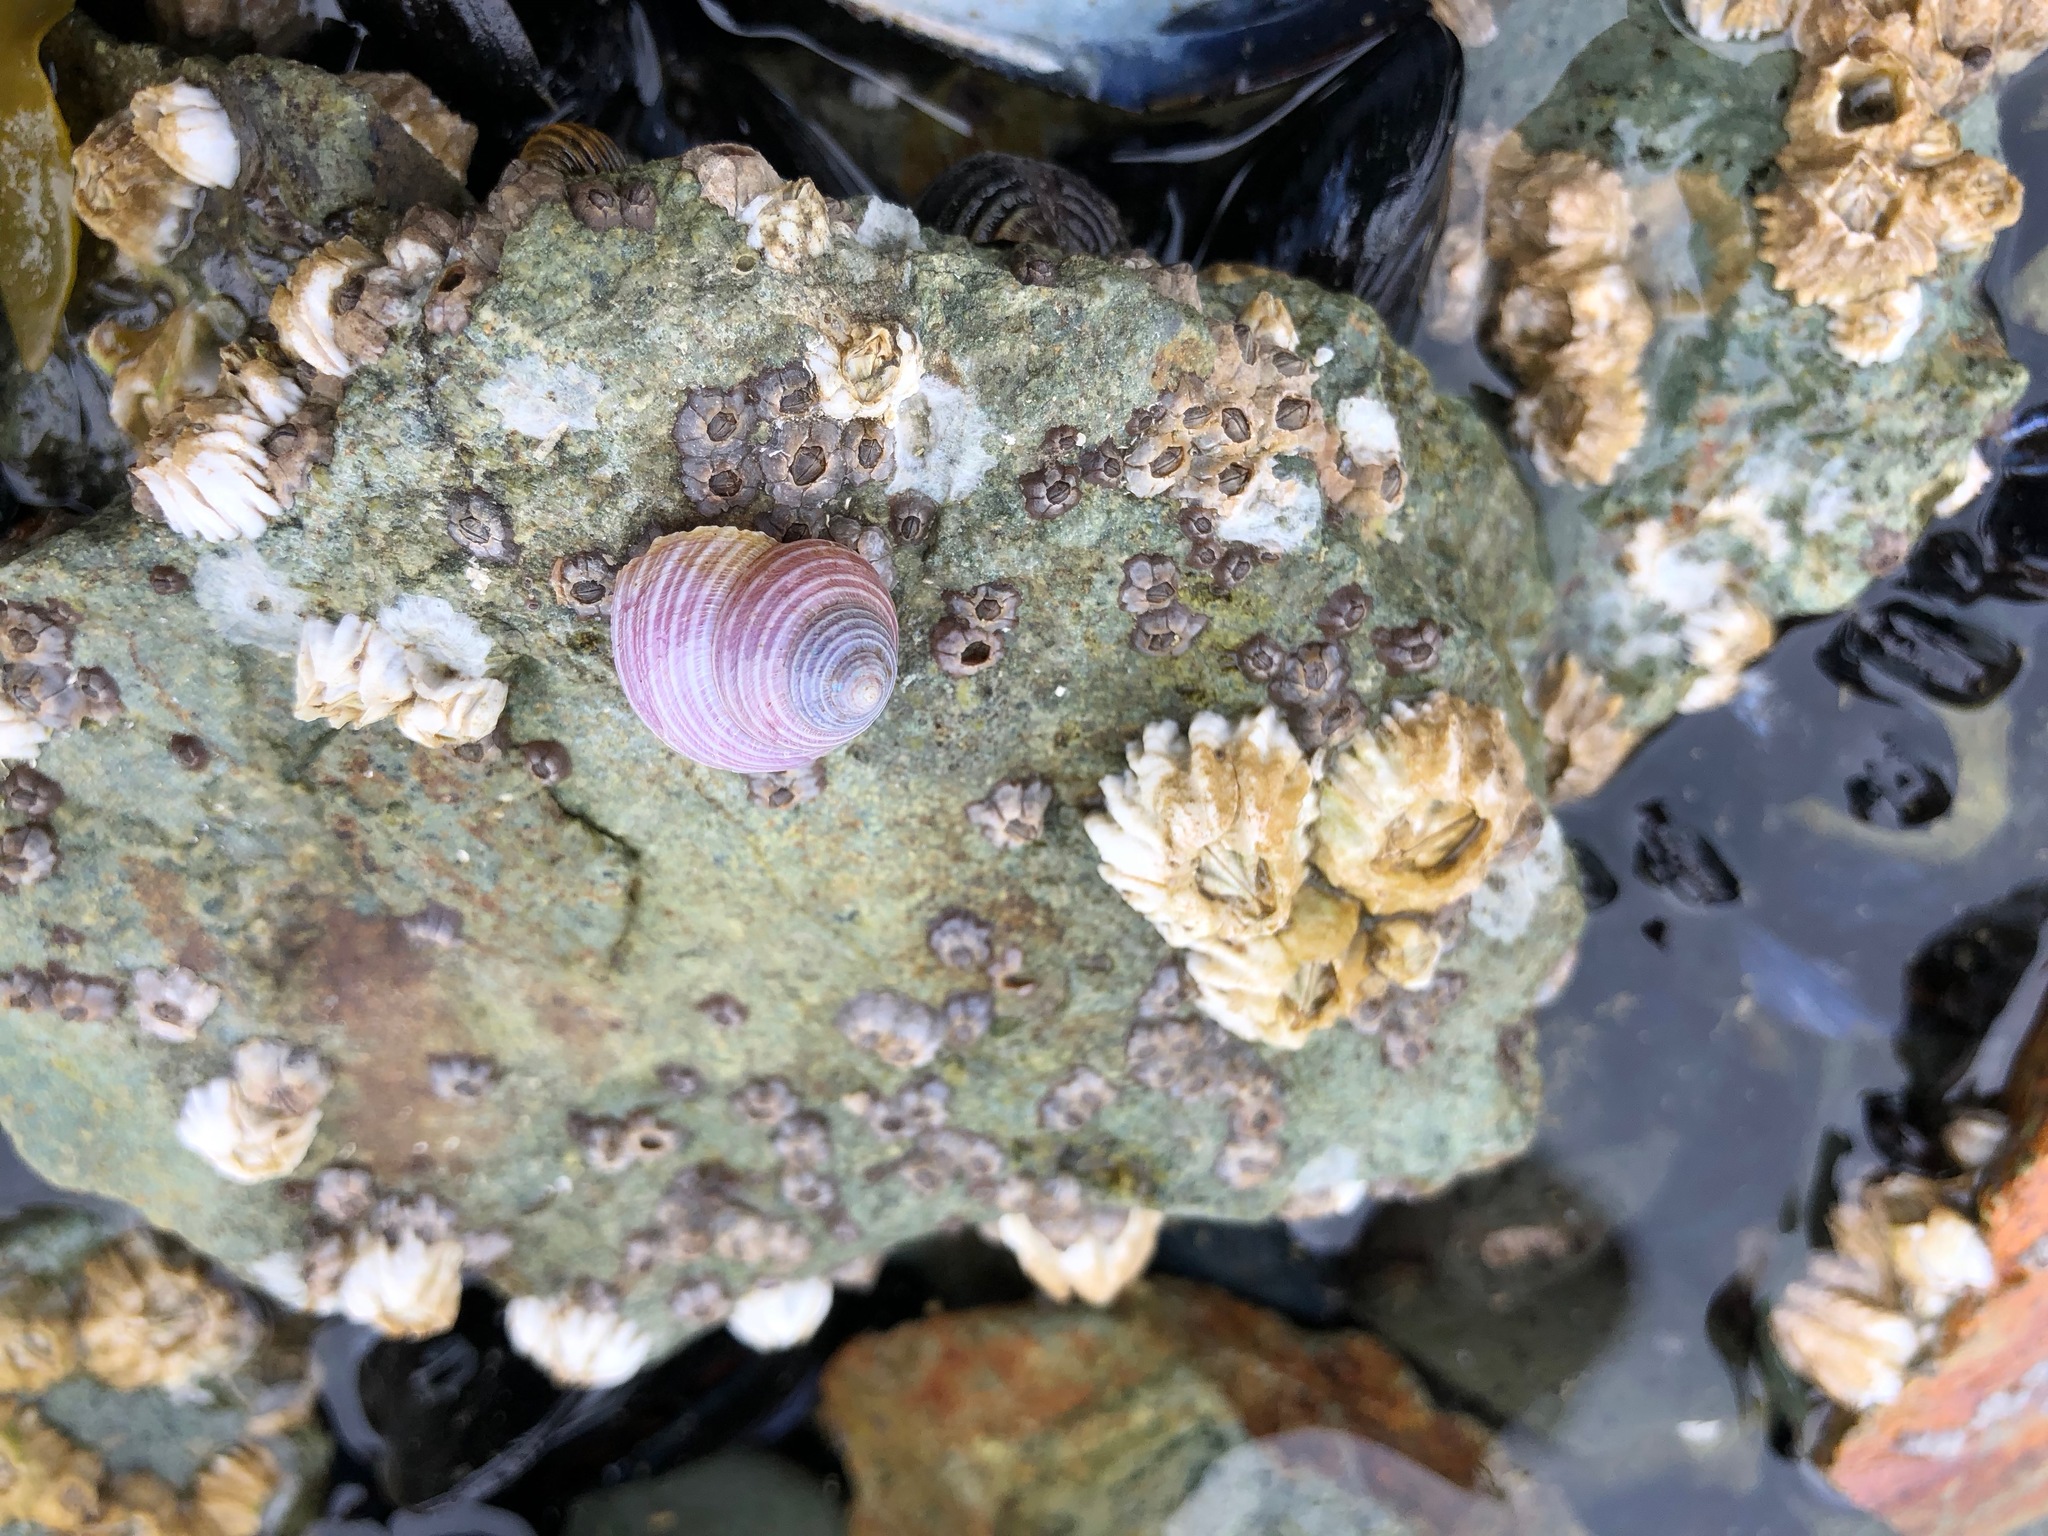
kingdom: Animalia
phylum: Mollusca
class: Gastropoda
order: Trochida
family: Margaritidae
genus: Margarites
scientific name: Margarites pupillus
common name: Puppet margarite
